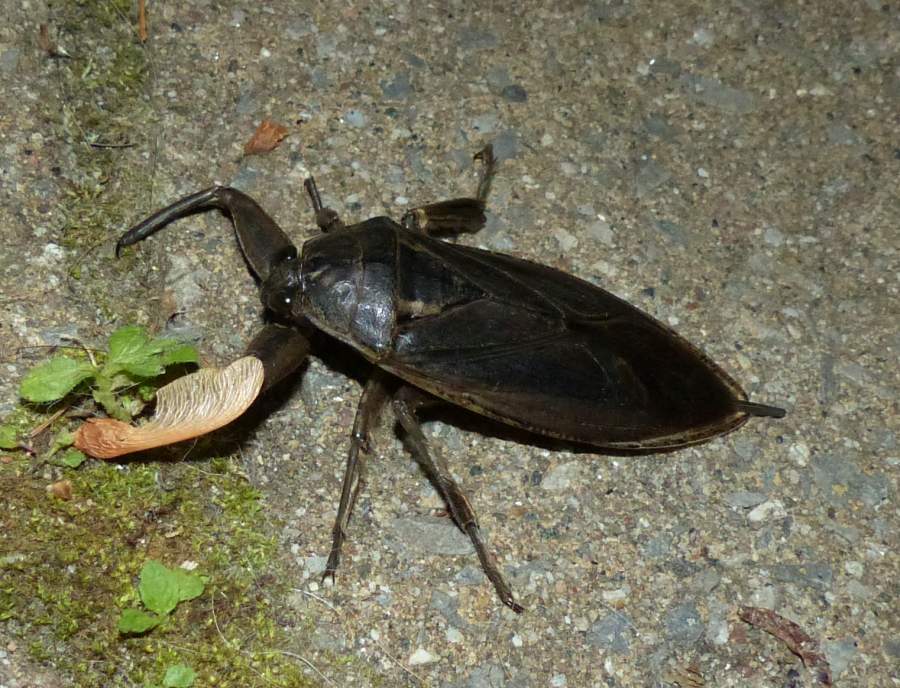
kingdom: Animalia
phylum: Arthropoda
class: Insecta
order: Hemiptera
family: Belostomatidae
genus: Lethocerus
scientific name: Lethocerus americanus
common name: Giant water bug
